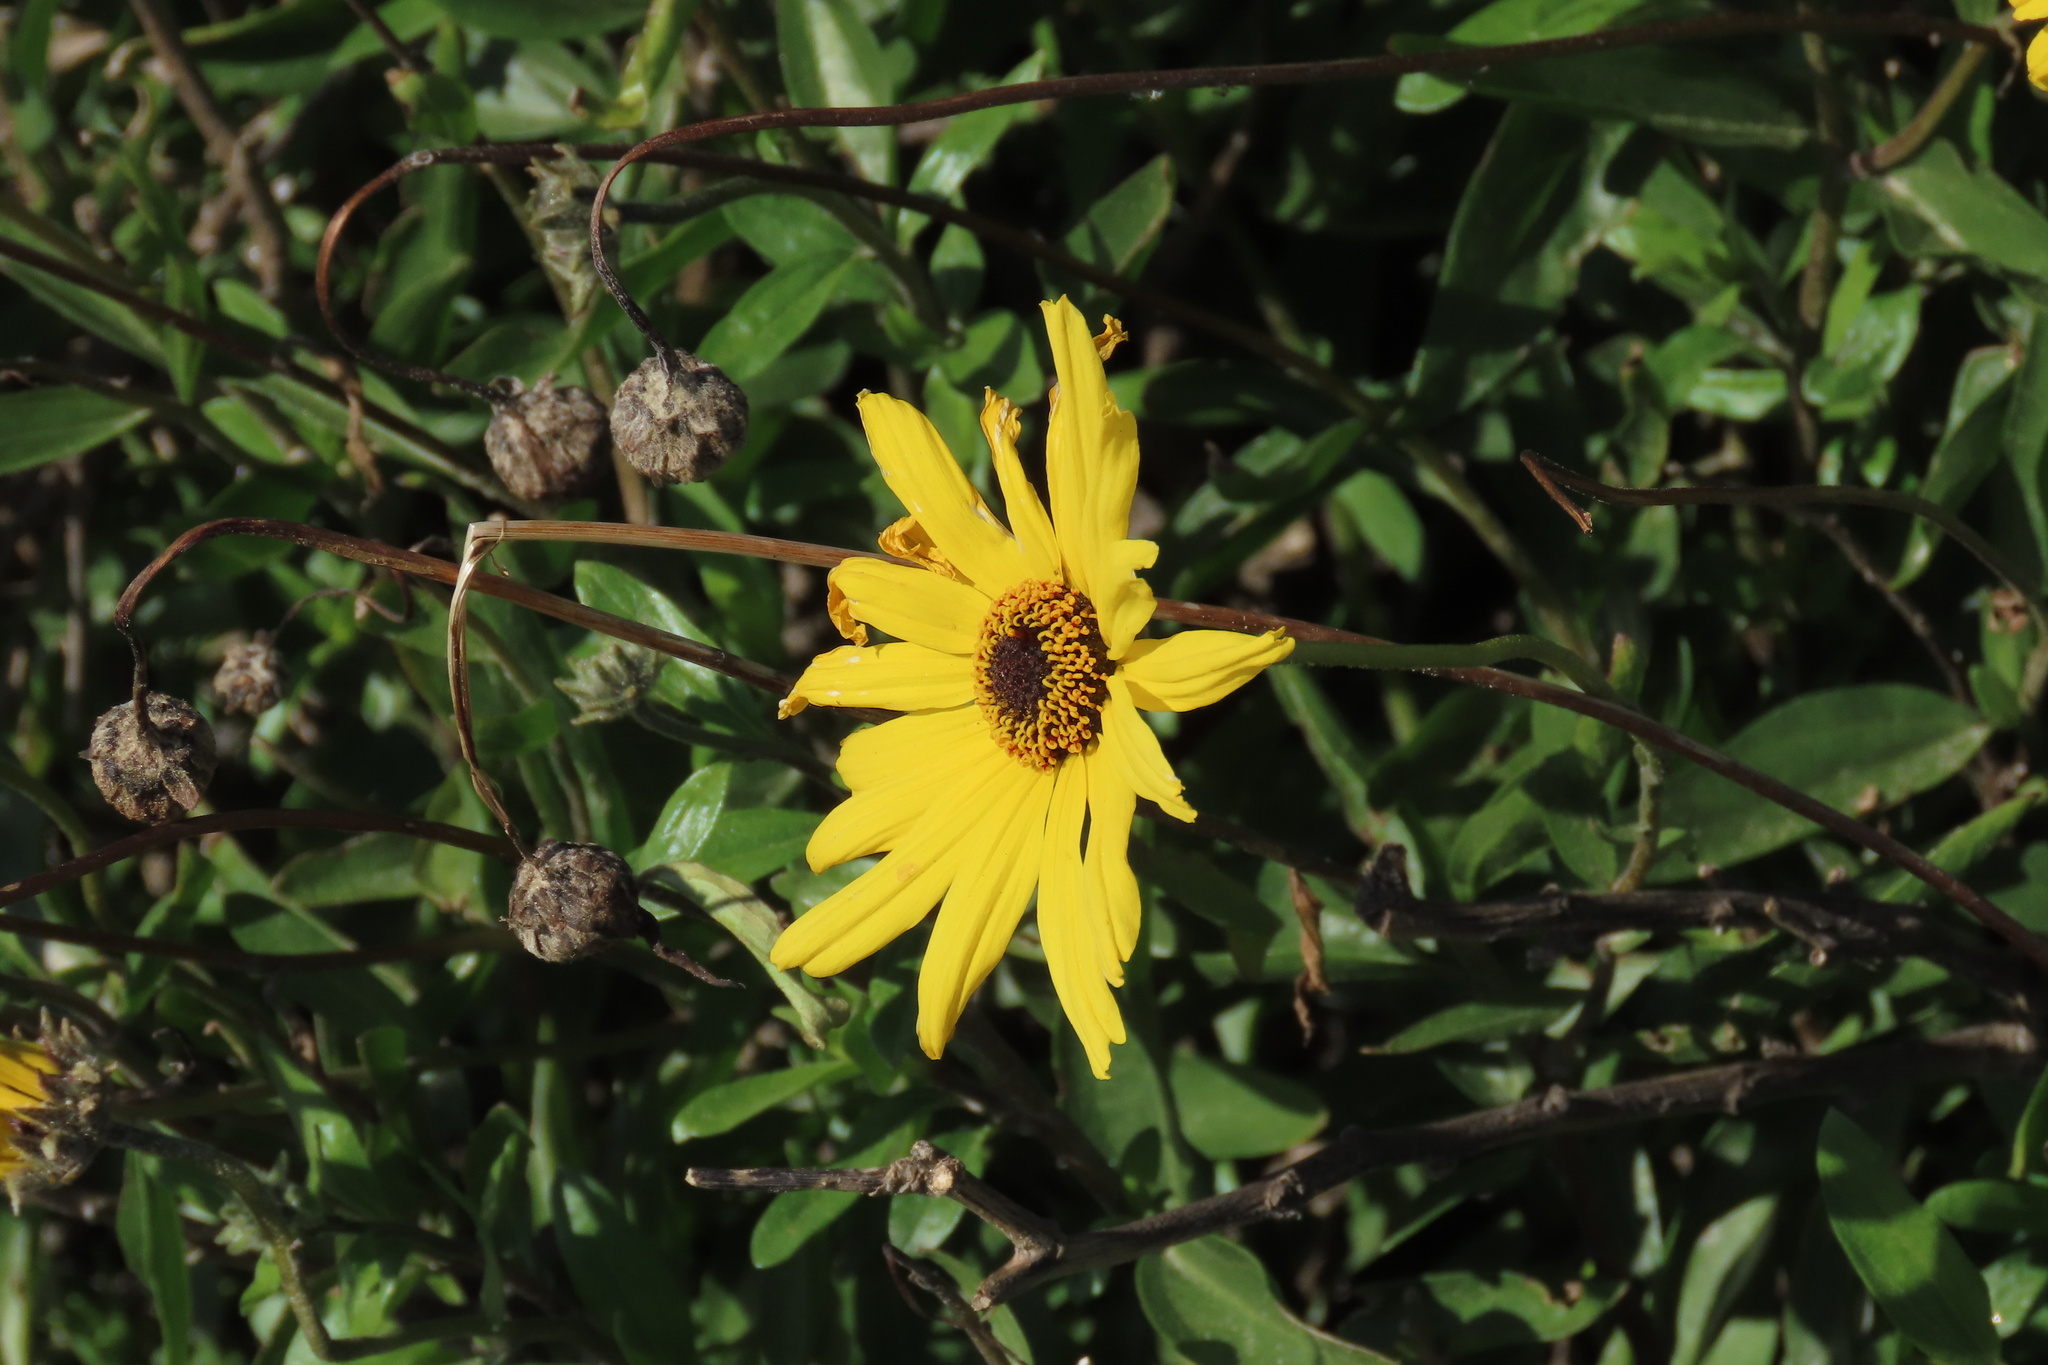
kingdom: Plantae
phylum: Tracheophyta
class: Magnoliopsida
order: Asterales
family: Asteraceae
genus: Encelia
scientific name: Encelia californica
